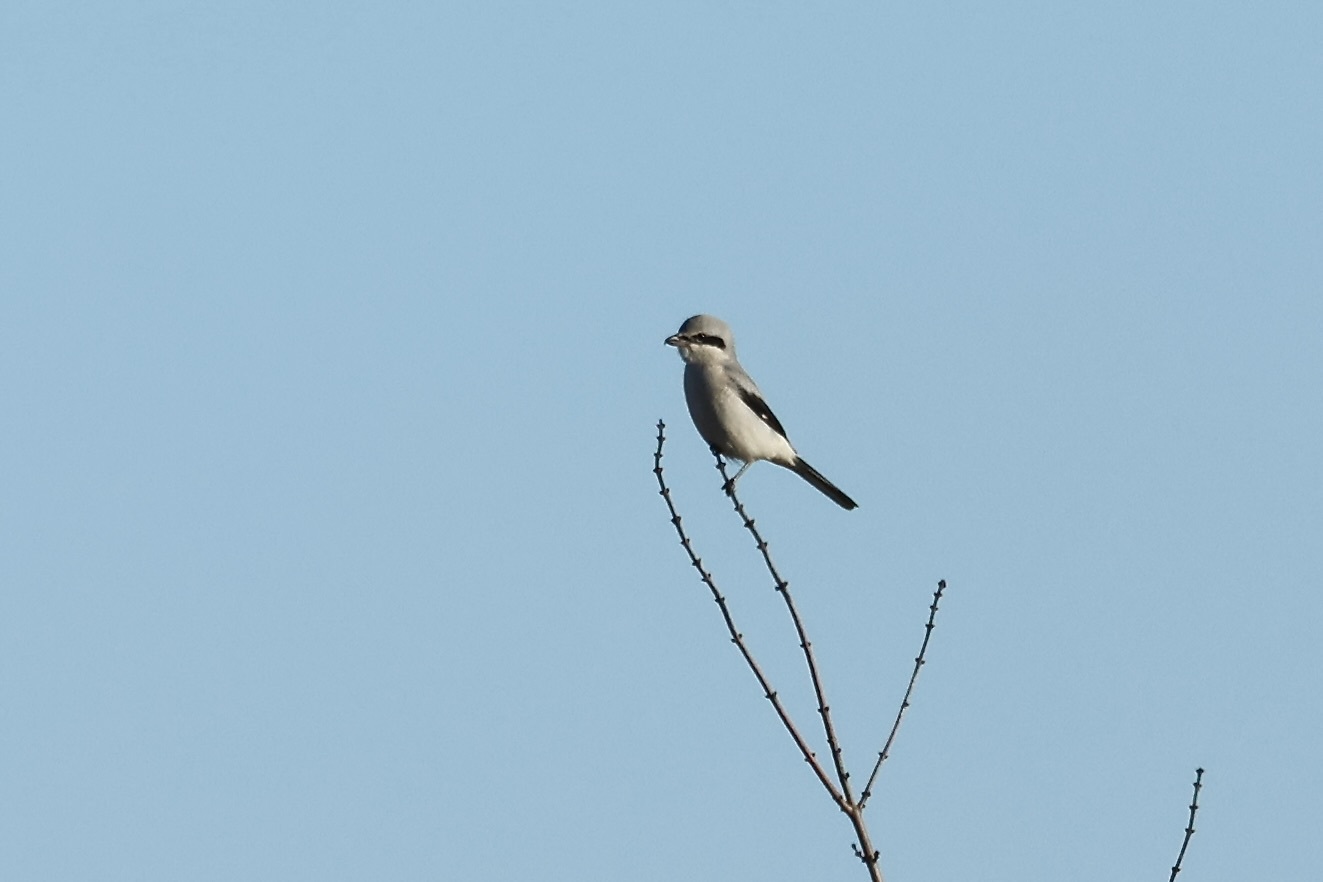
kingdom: Animalia
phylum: Chordata
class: Aves
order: Passeriformes
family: Laniidae
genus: Lanius
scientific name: Lanius borealis
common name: Northern shrike
